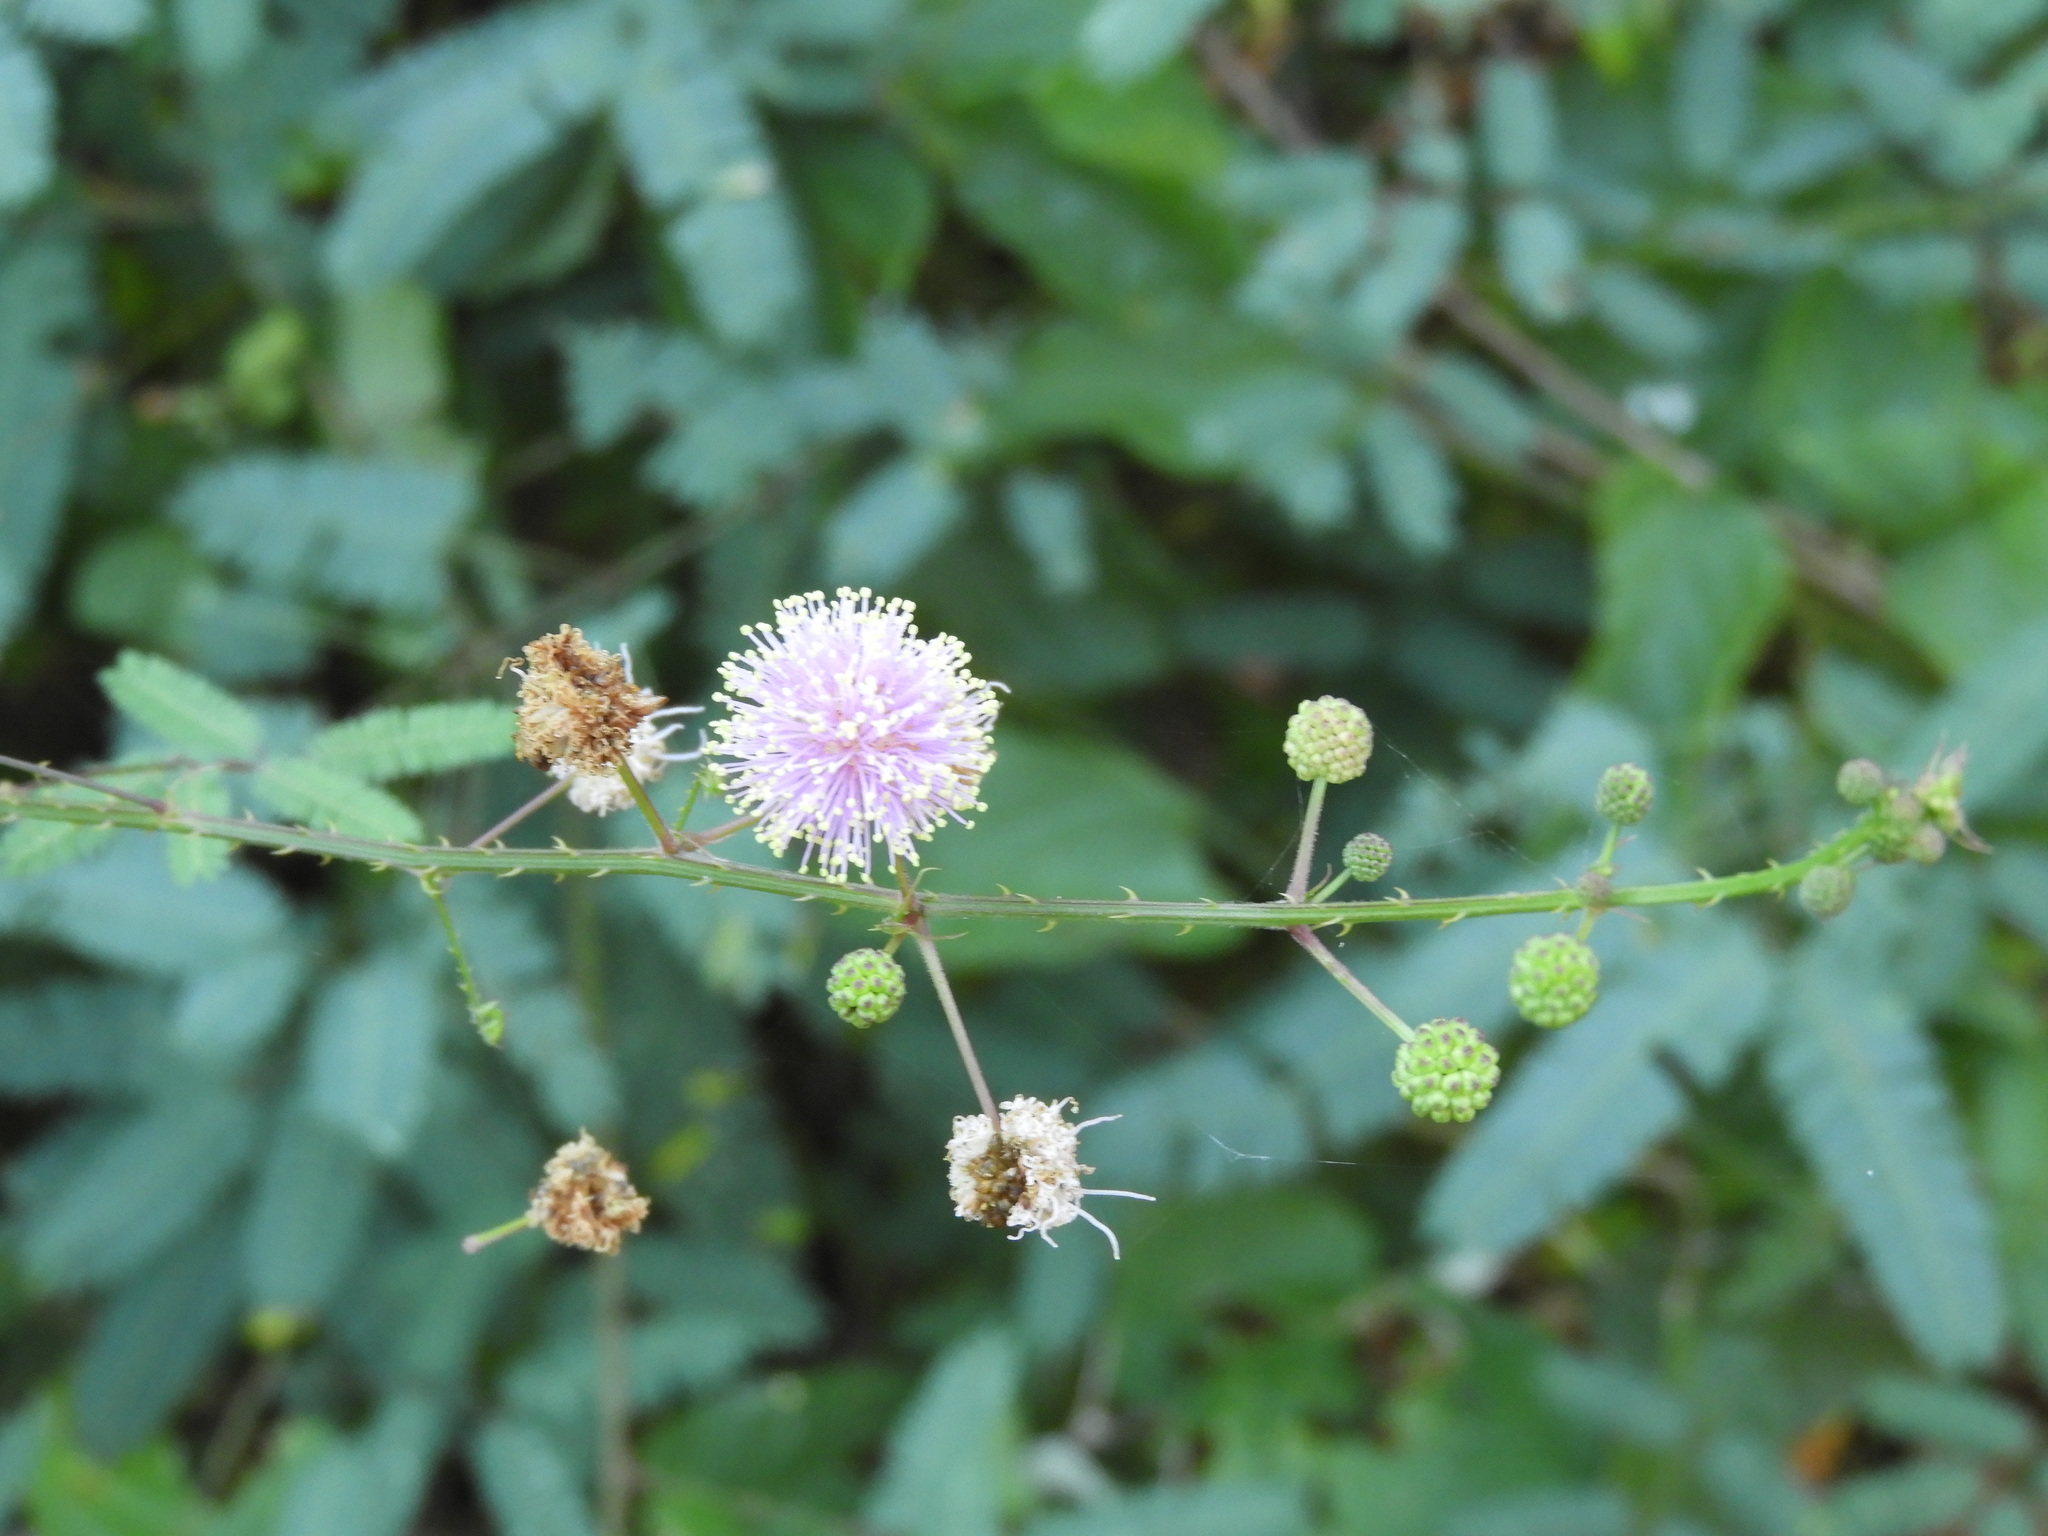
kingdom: Plantae
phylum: Tracheophyta
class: Magnoliopsida
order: Fabales
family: Fabaceae
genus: Mimosa
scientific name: Mimosa quadrivalvis
